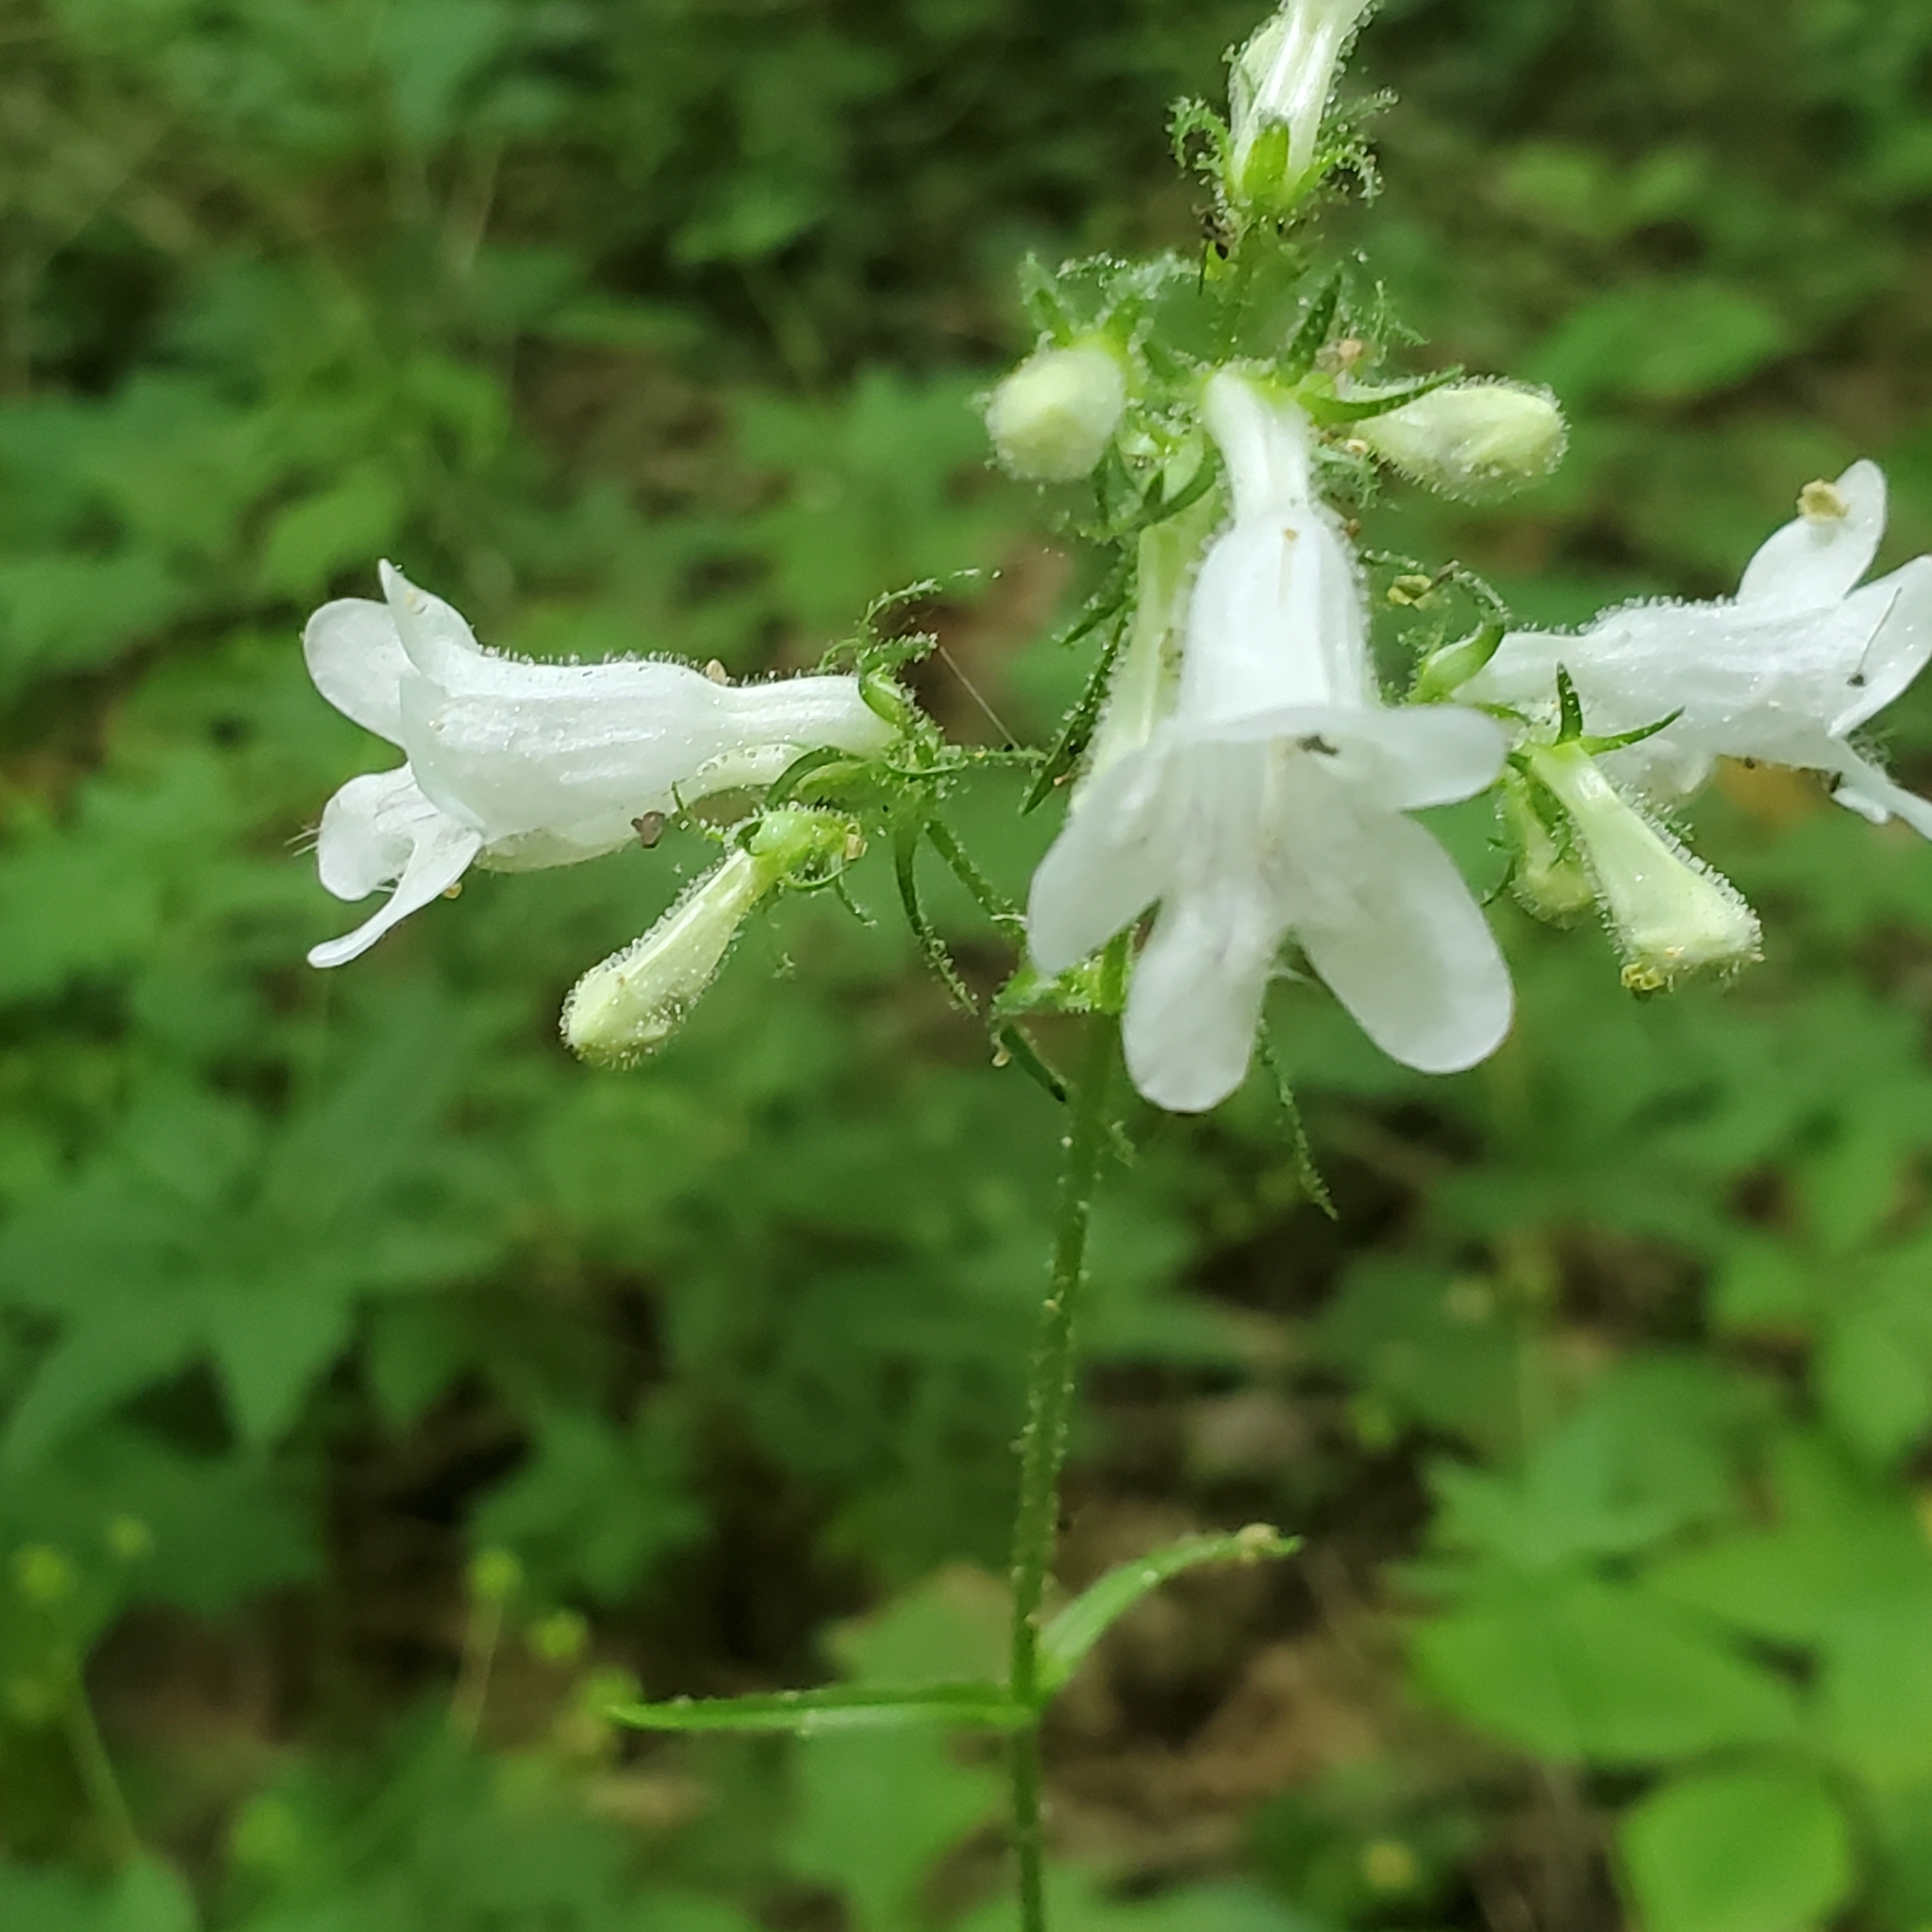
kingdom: Plantae
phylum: Tracheophyta
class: Magnoliopsida
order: Lamiales
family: Plantaginaceae
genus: Penstemon
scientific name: Penstemon digitalis
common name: Foxglove beardtongue
